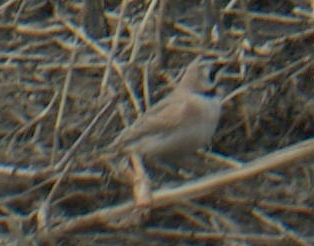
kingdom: Animalia
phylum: Chordata
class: Aves
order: Passeriformes
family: Alaudidae
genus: Eremophila
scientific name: Eremophila alpestris
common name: Horned lark
